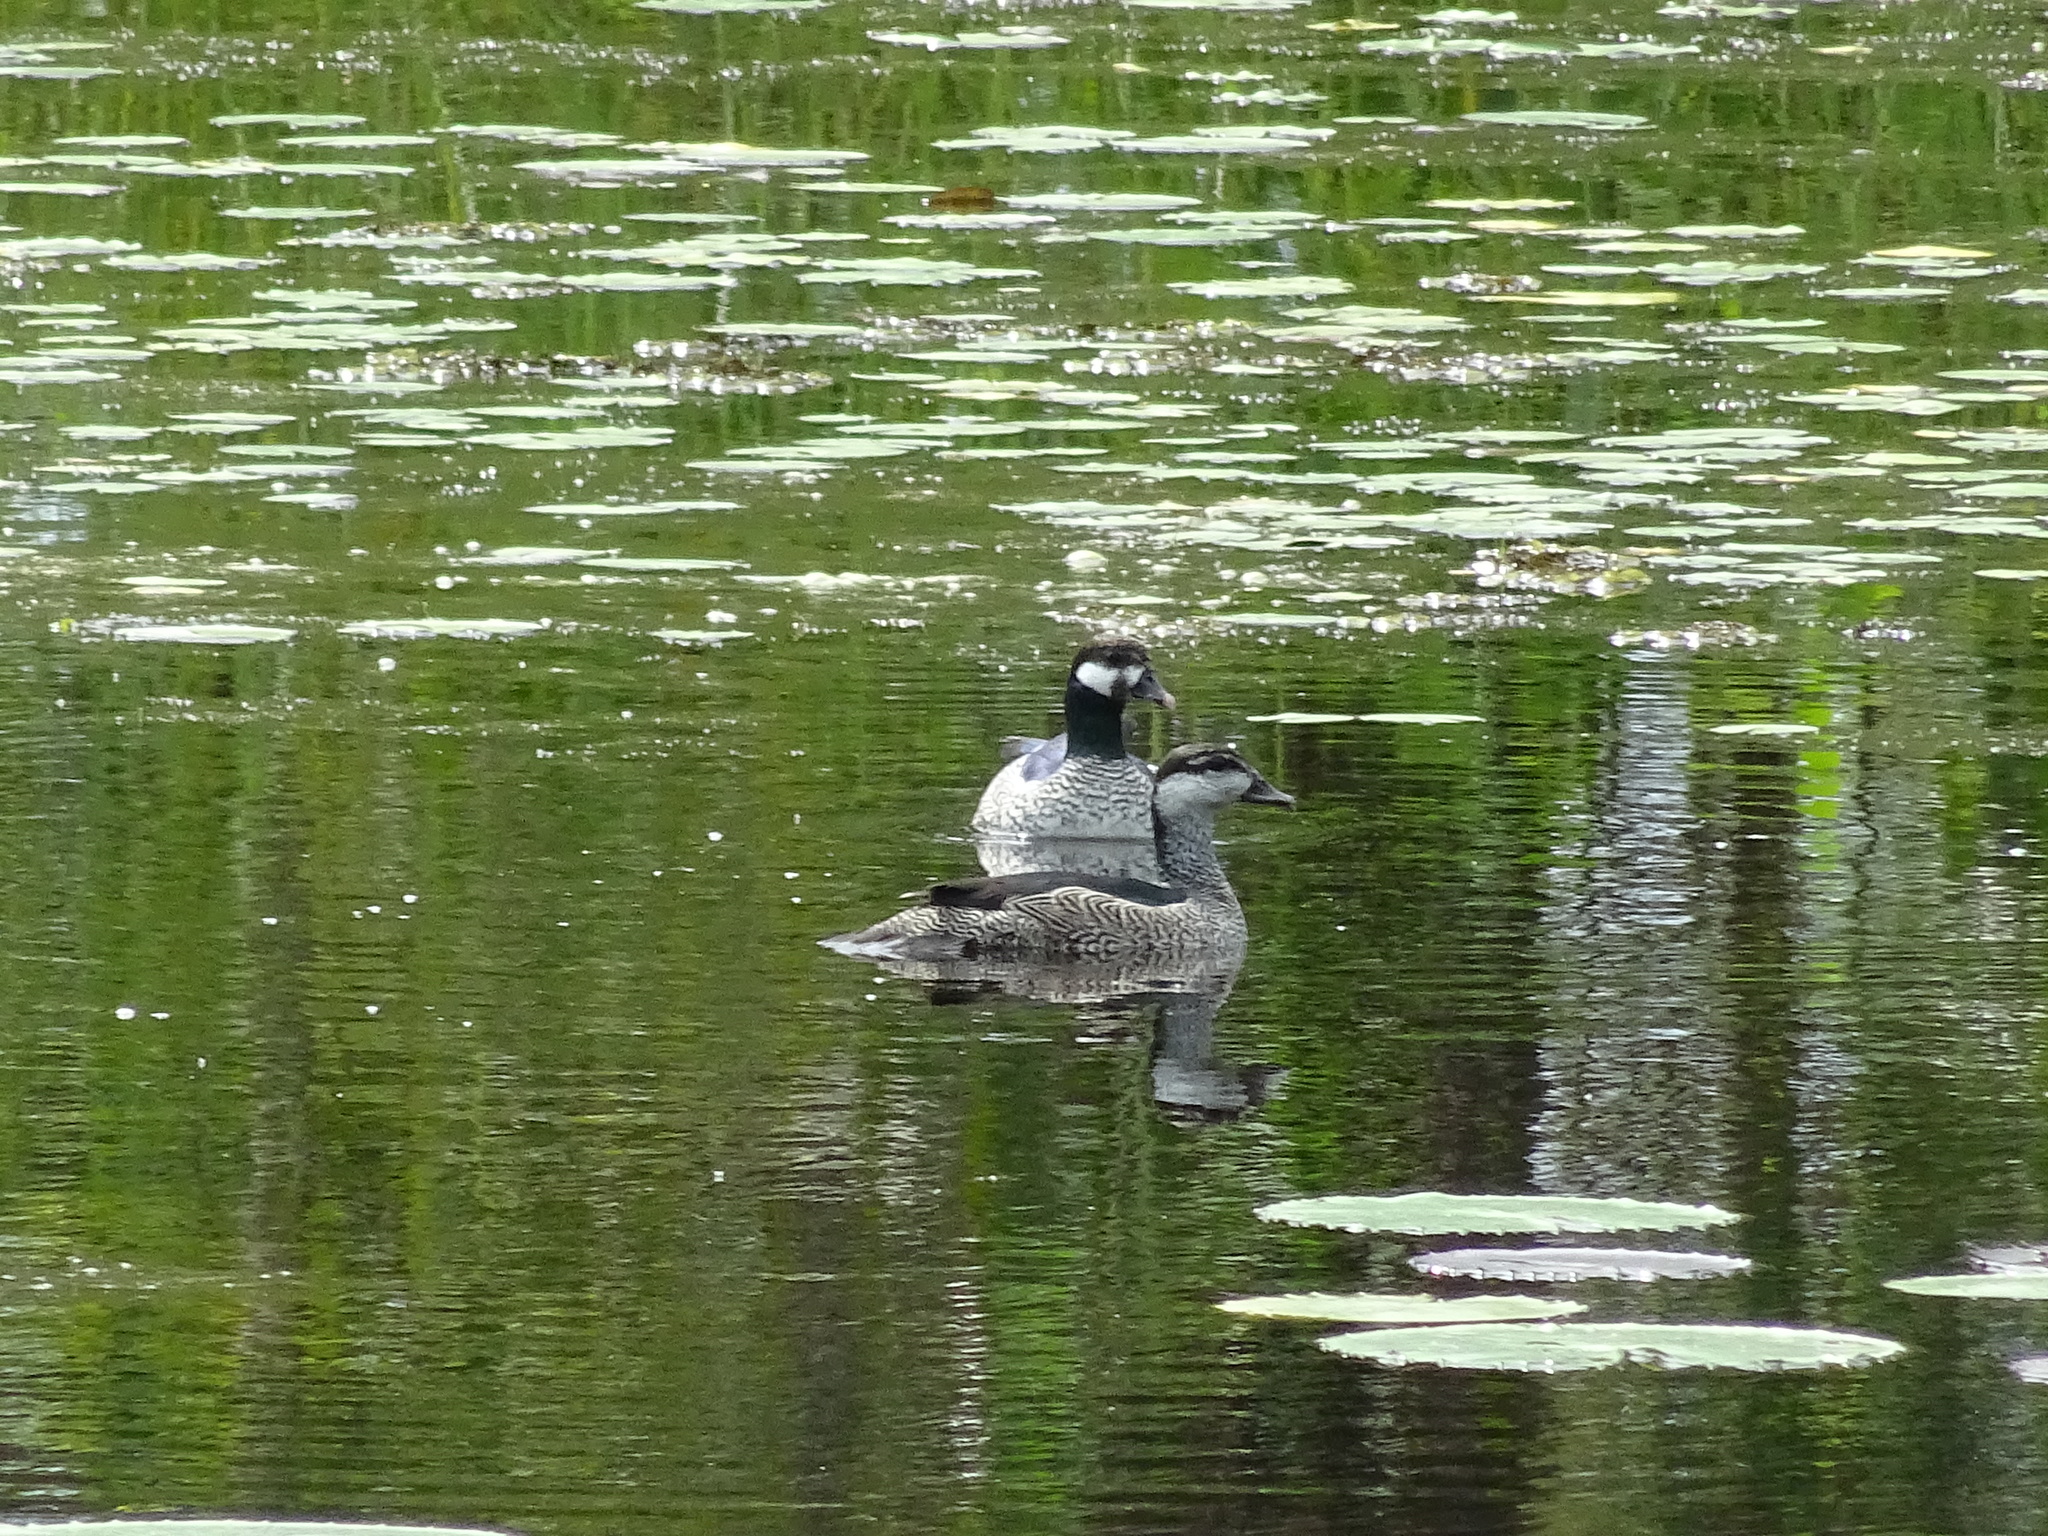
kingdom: Animalia
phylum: Chordata
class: Aves
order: Anseriformes
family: Anatidae
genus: Nettapus
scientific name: Nettapus pulchellus
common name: Green pygmy-goose
